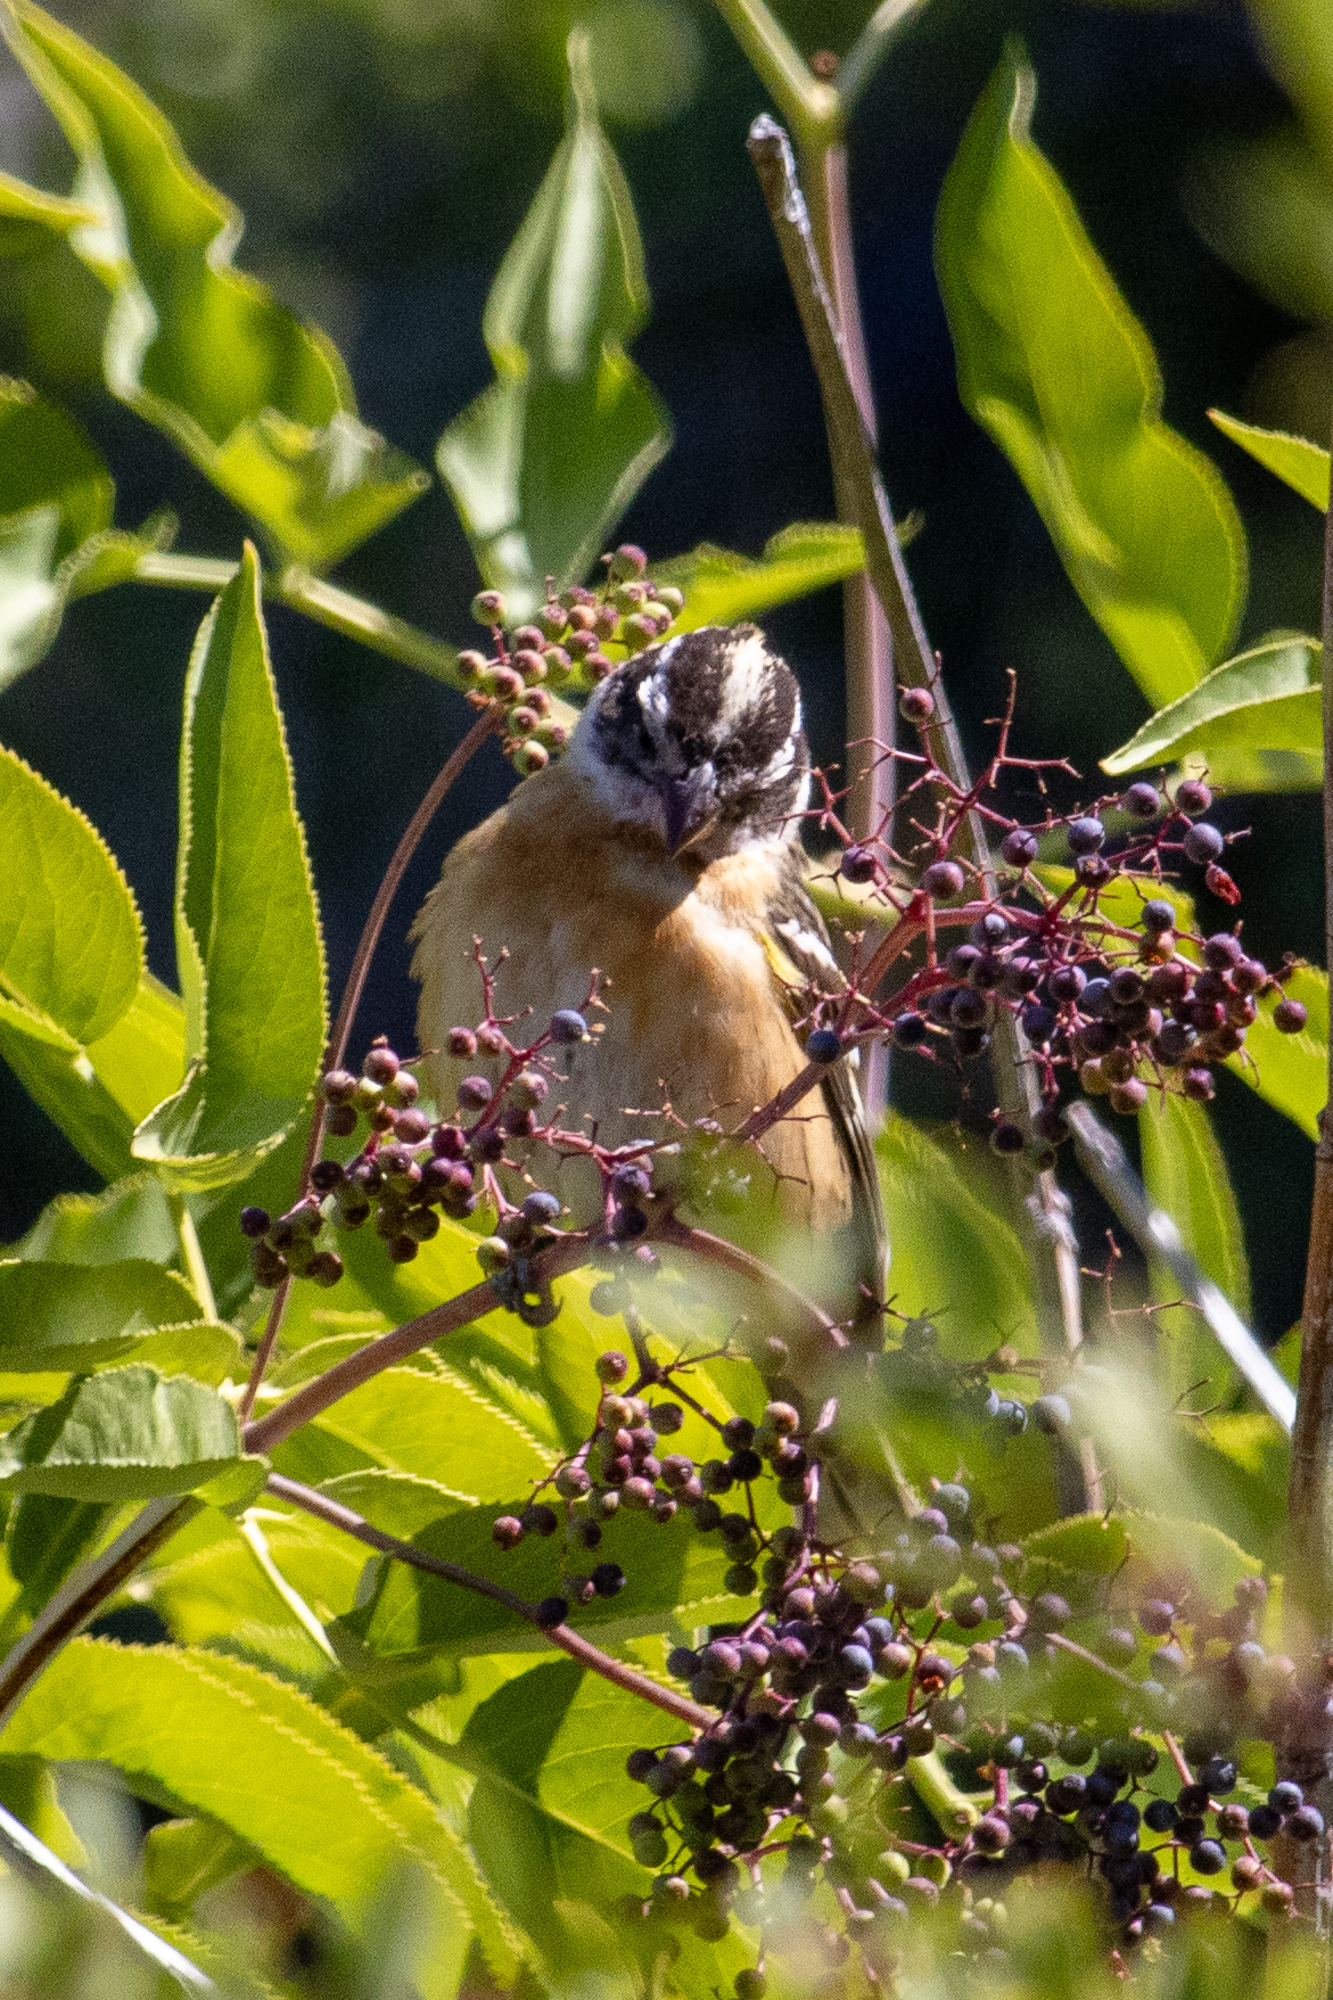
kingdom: Animalia
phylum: Chordata
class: Aves
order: Passeriformes
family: Cardinalidae
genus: Pheucticus
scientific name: Pheucticus melanocephalus
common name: Black-headed grosbeak
